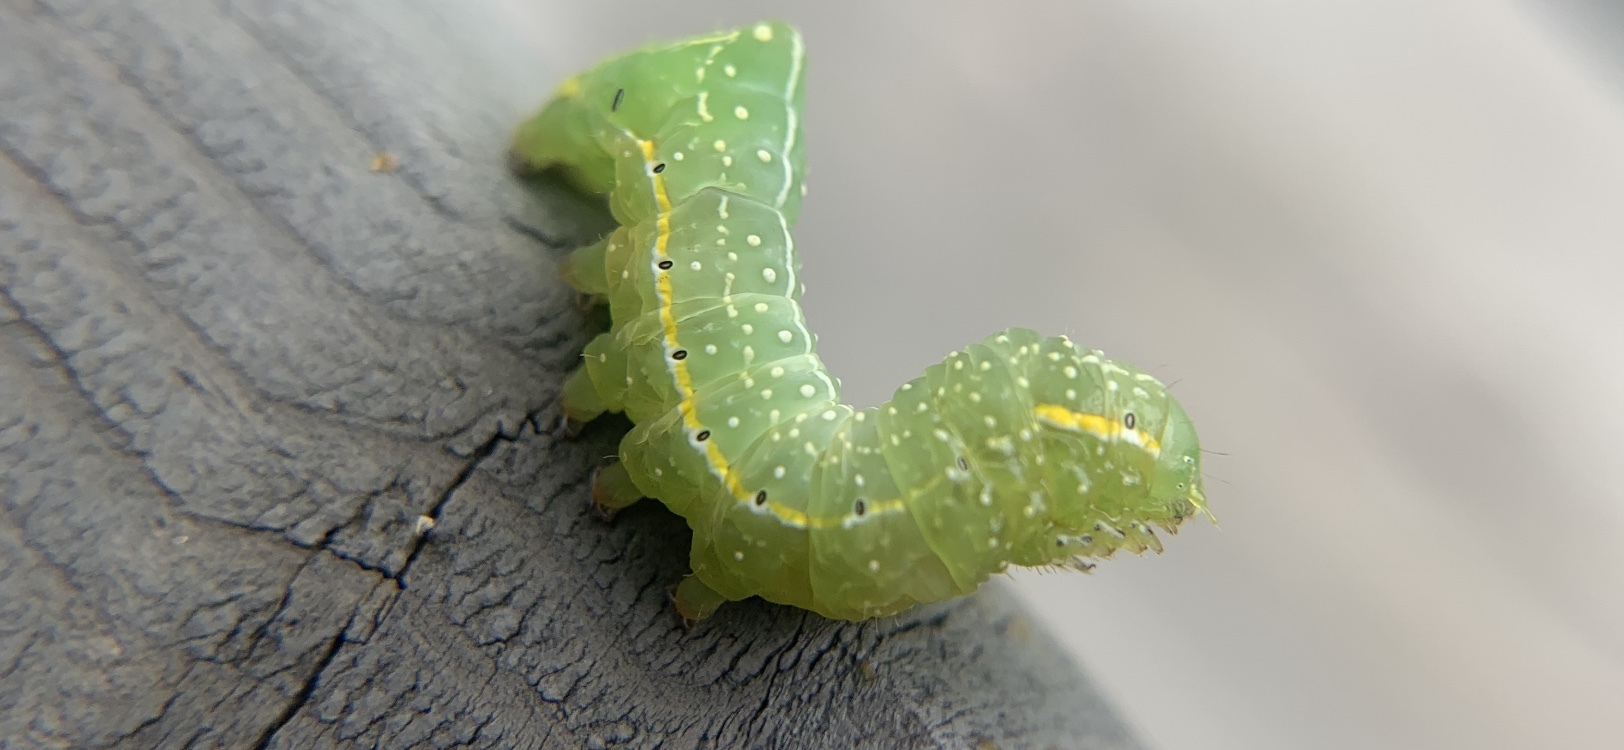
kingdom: Animalia
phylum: Arthropoda
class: Insecta
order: Lepidoptera
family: Noctuidae
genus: Amphipyra
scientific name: Amphipyra pyramidoides
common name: American copper underwing
